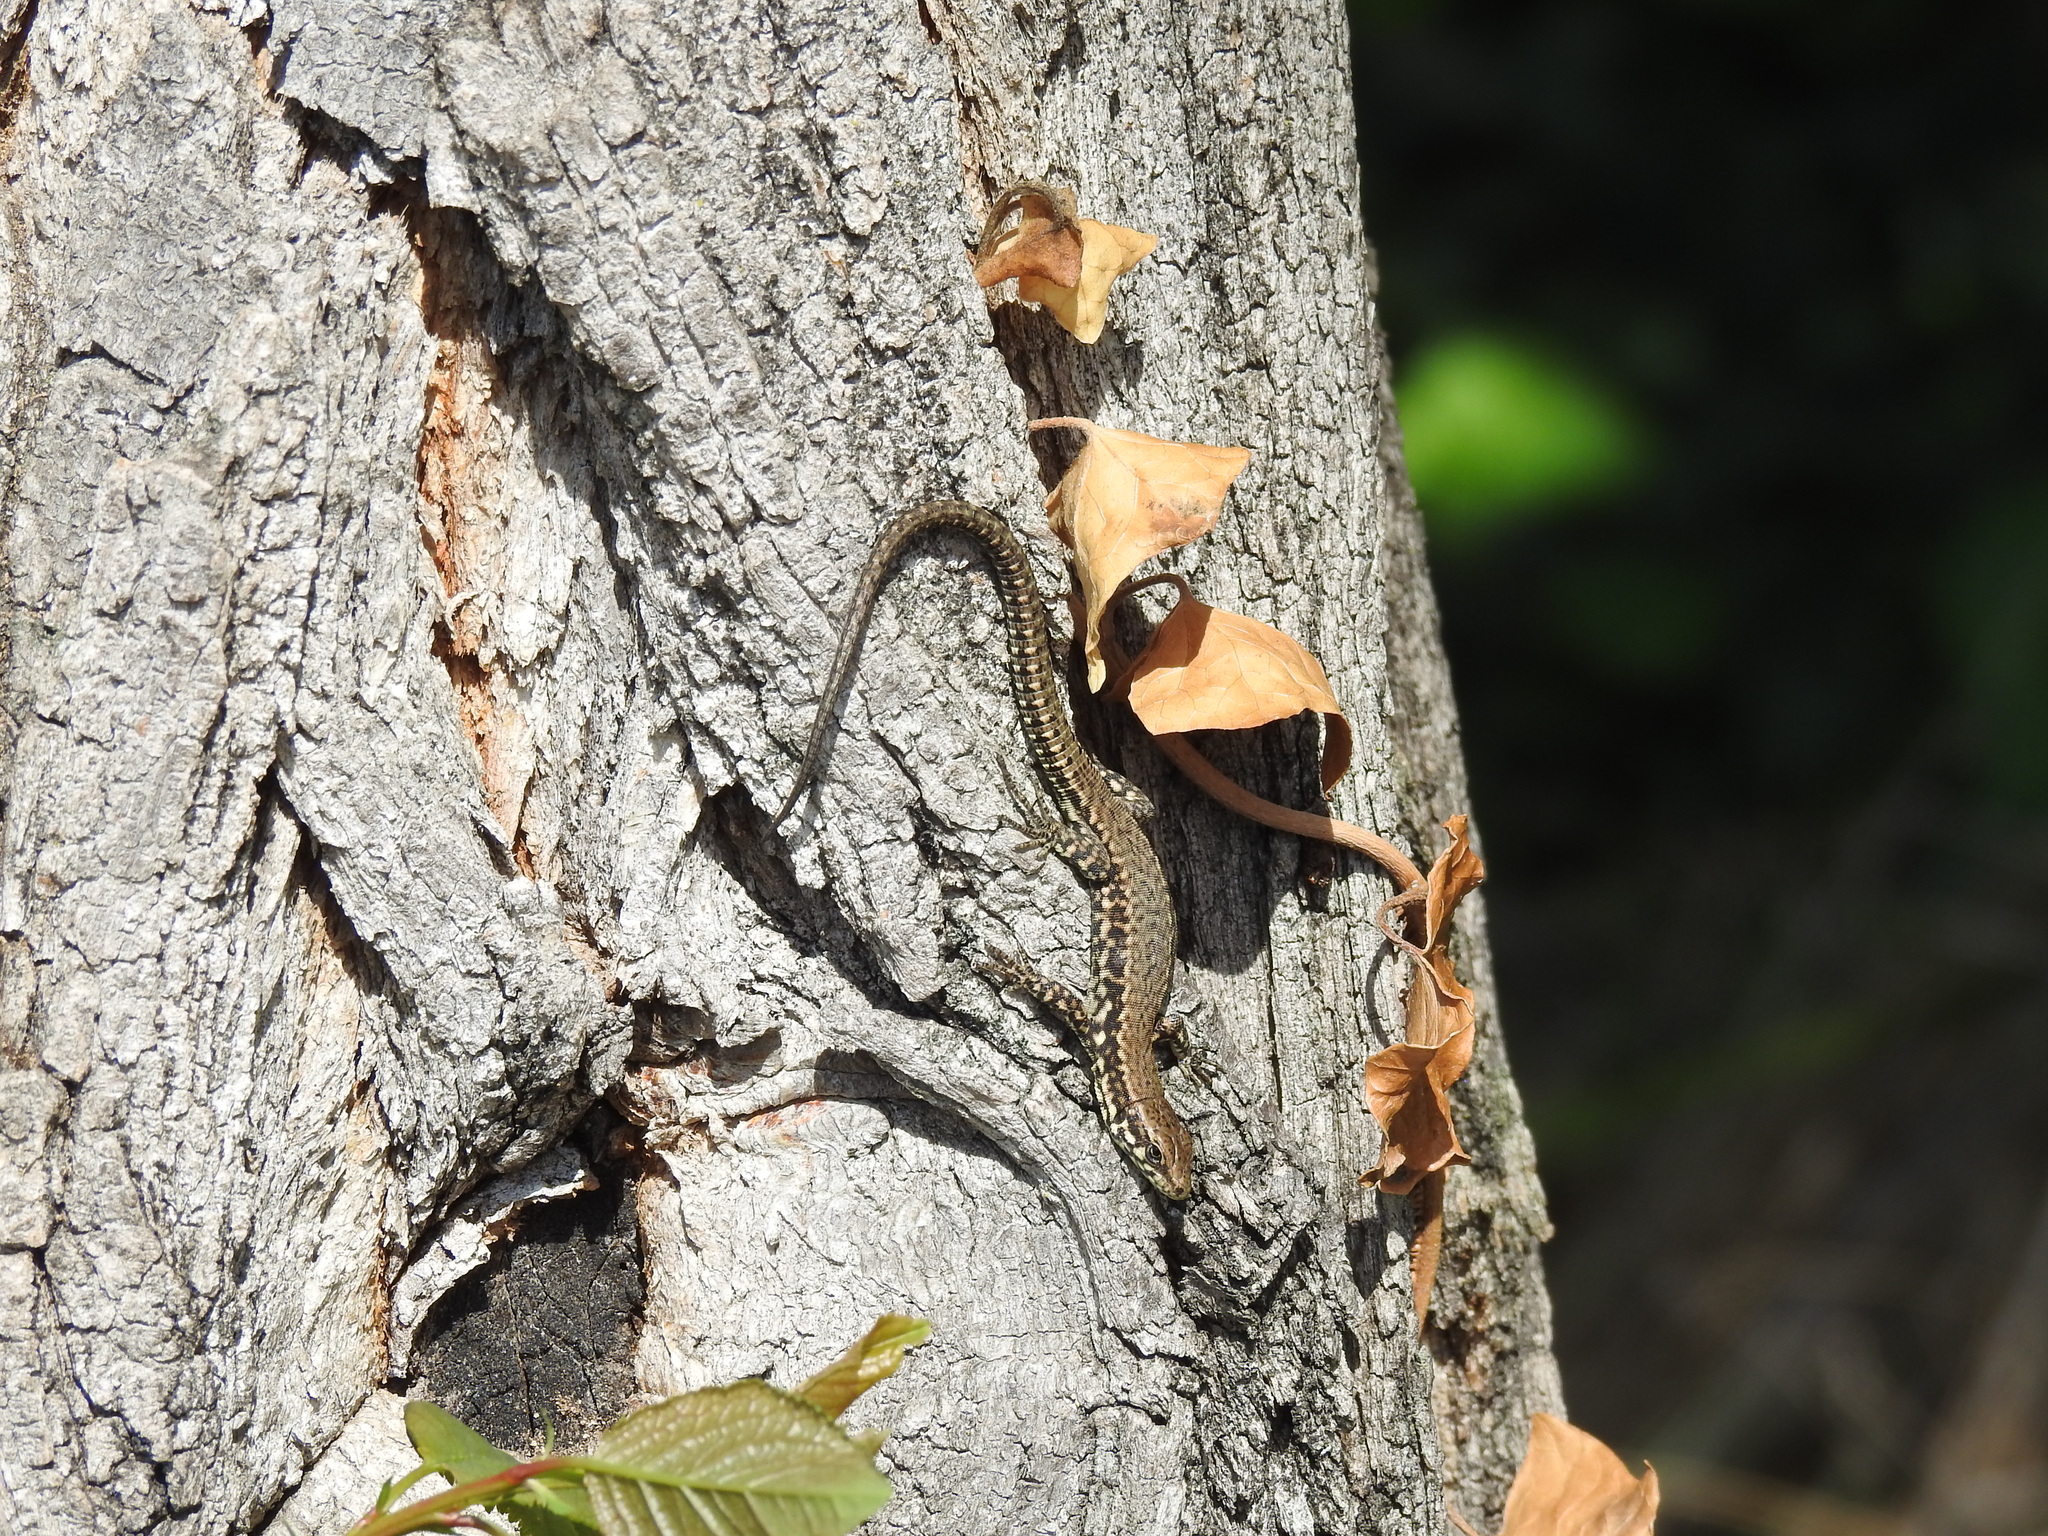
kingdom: Animalia
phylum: Chordata
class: Squamata
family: Lacertidae
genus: Podarcis
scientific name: Podarcis muralis
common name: Common wall lizard
